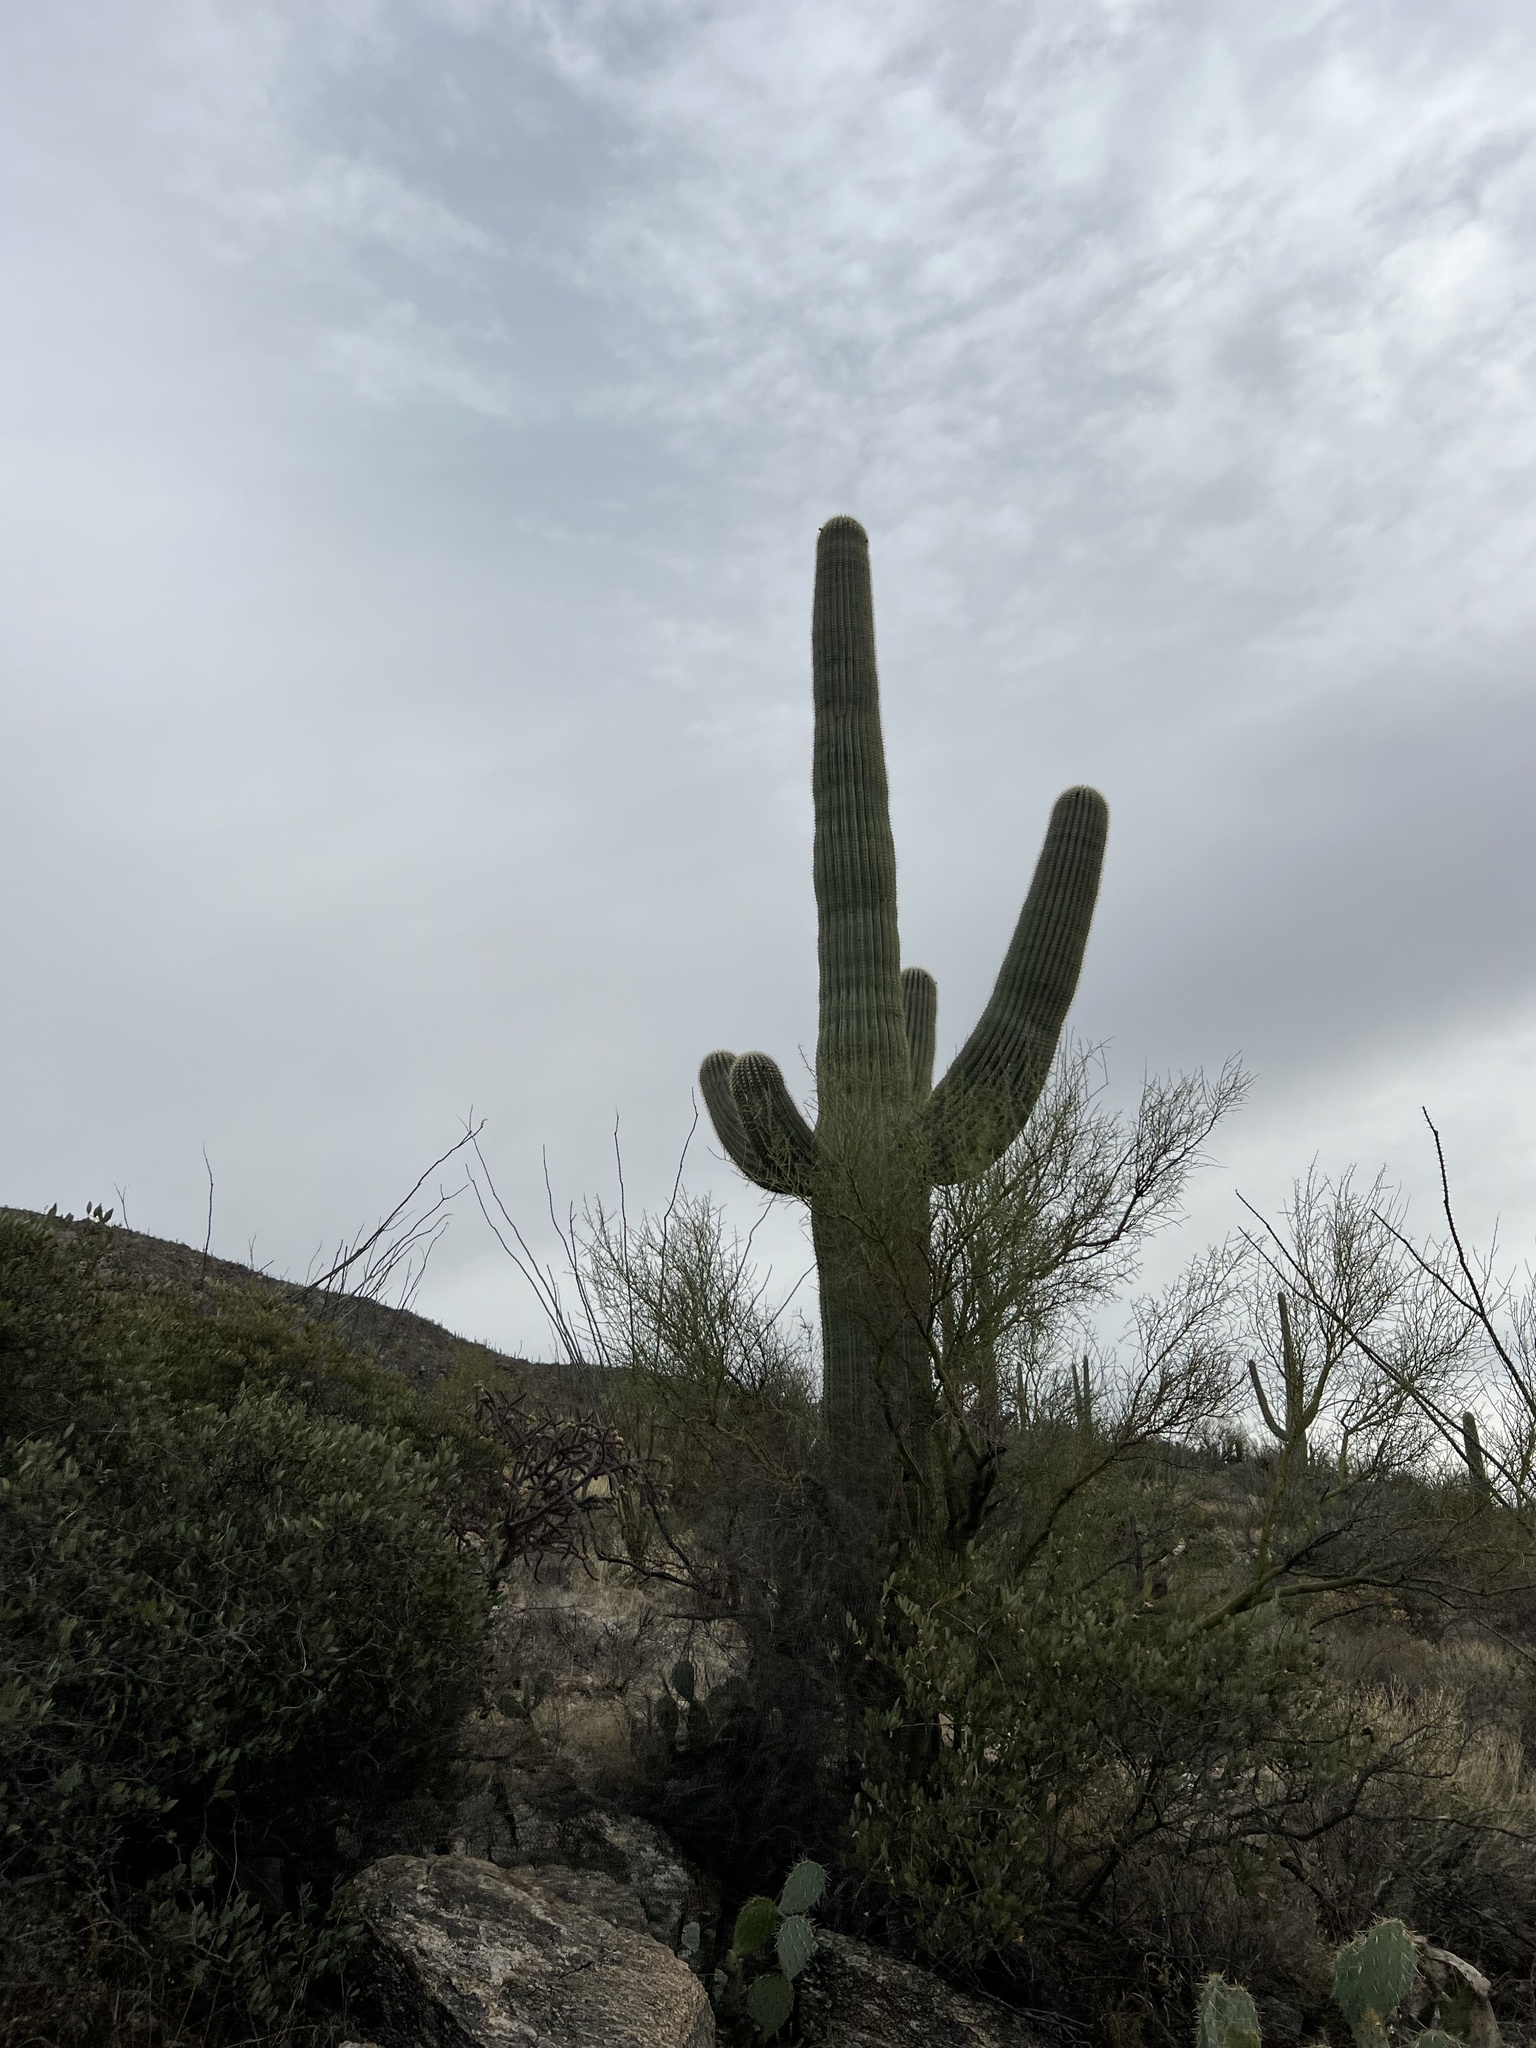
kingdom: Plantae
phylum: Tracheophyta
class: Magnoliopsida
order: Caryophyllales
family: Cactaceae
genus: Carnegiea
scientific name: Carnegiea gigantea
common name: Saguaro
